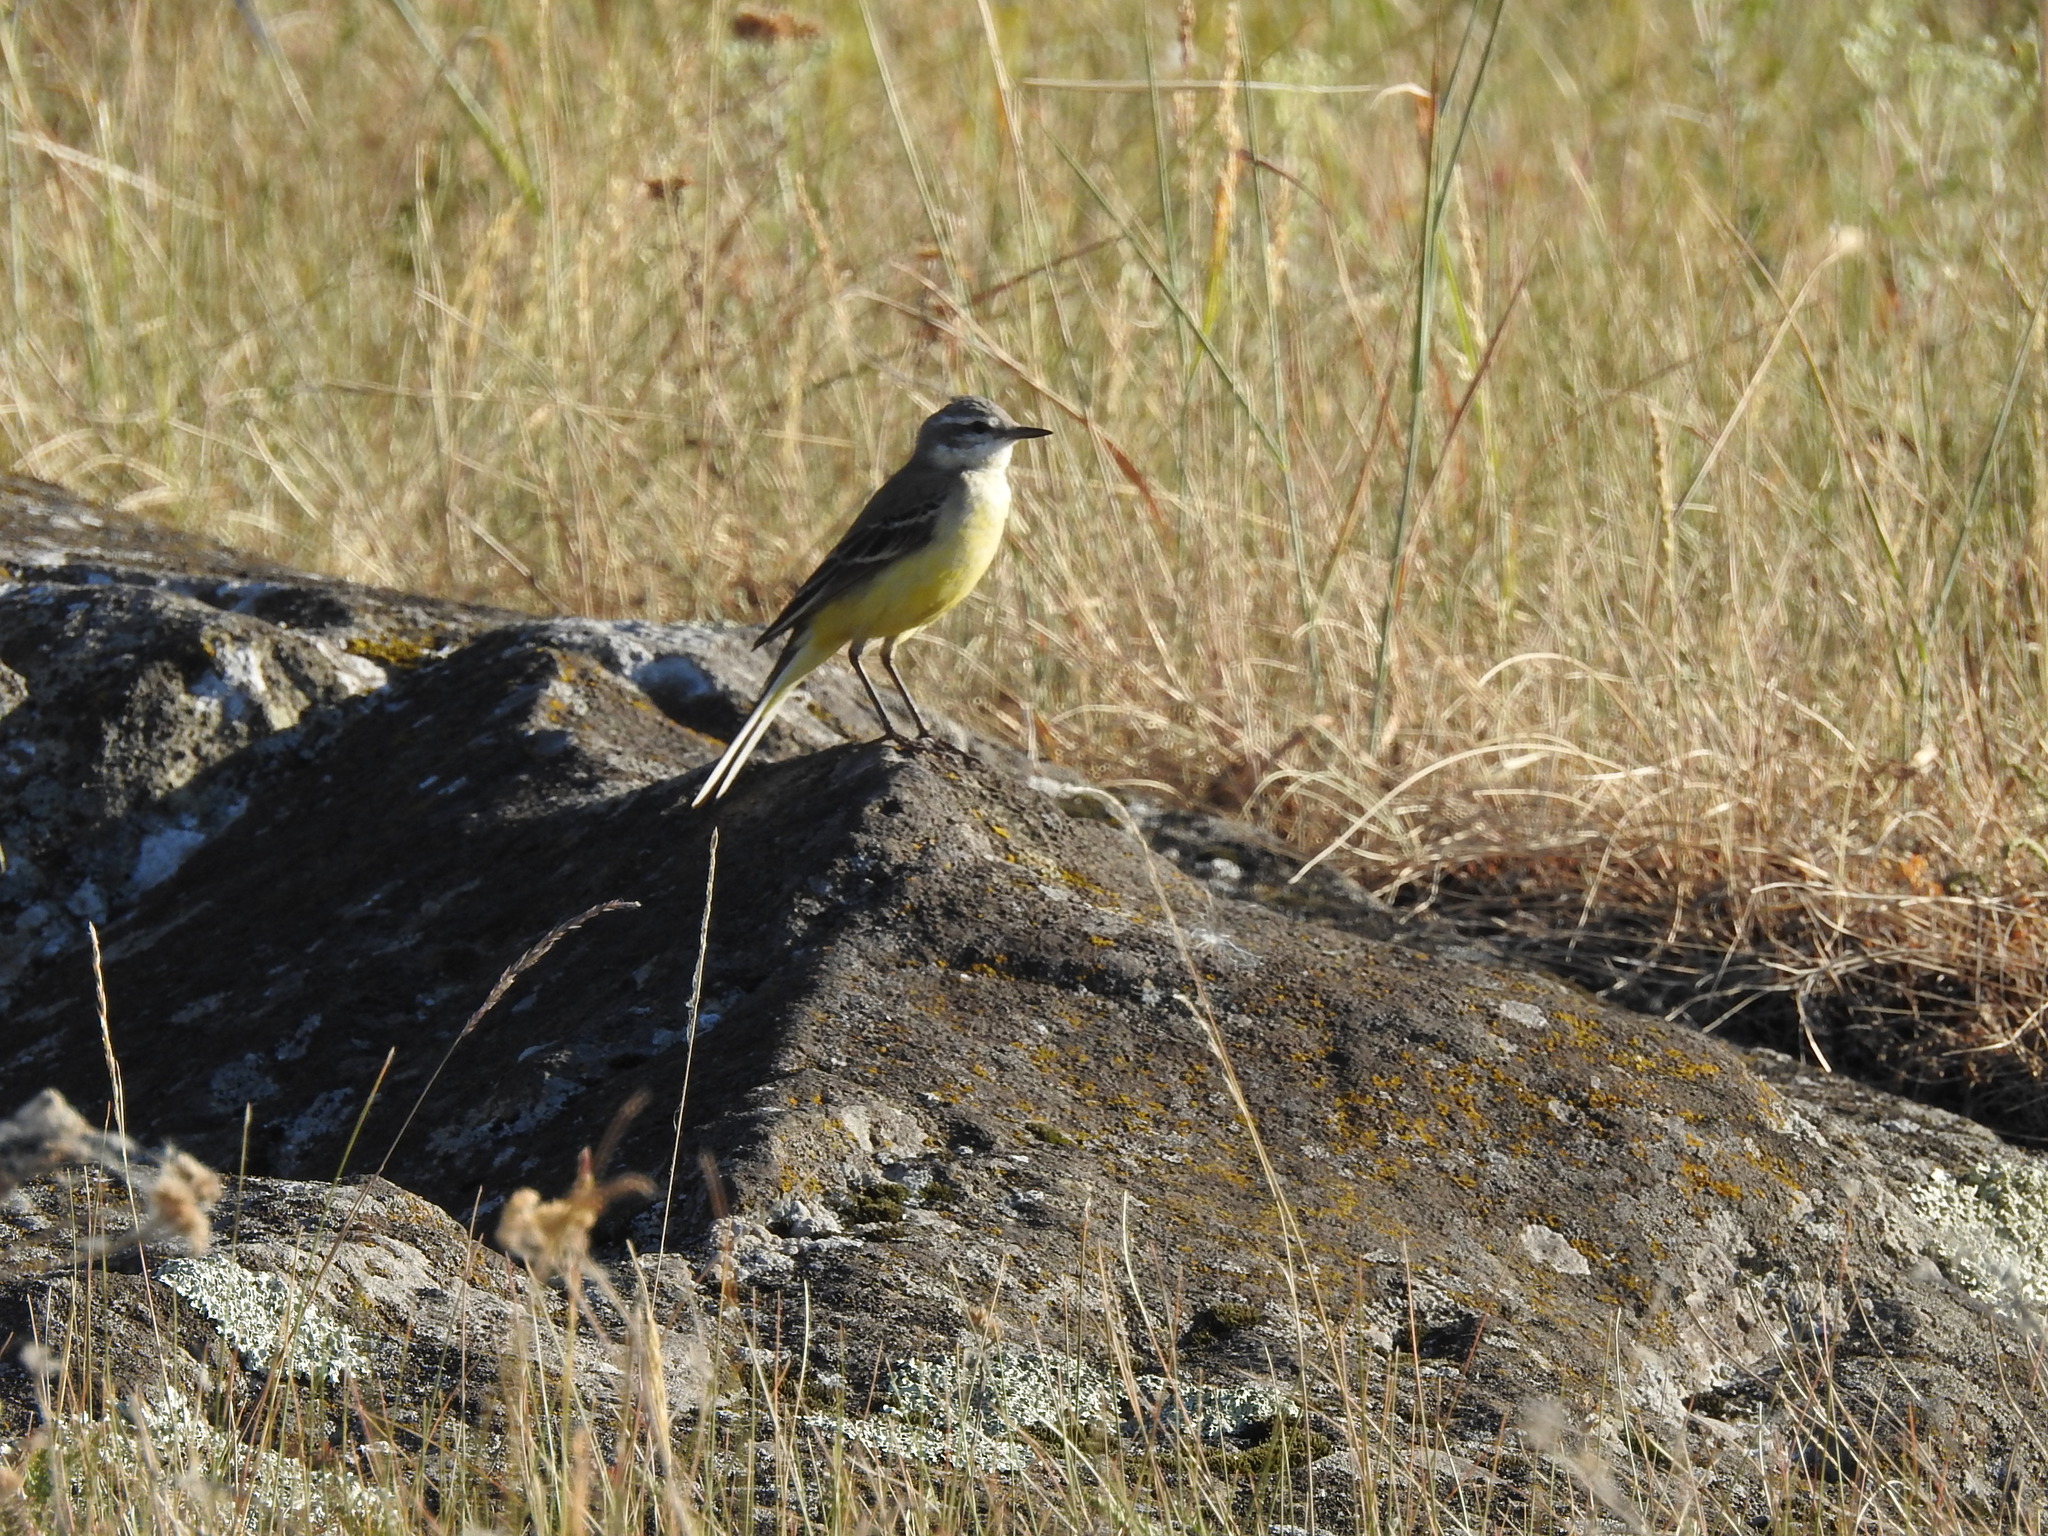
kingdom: Animalia
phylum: Chordata
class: Aves
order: Passeriformes
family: Motacillidae
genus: Motacilla
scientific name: Motacilla flava
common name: Western yellow wagtail
